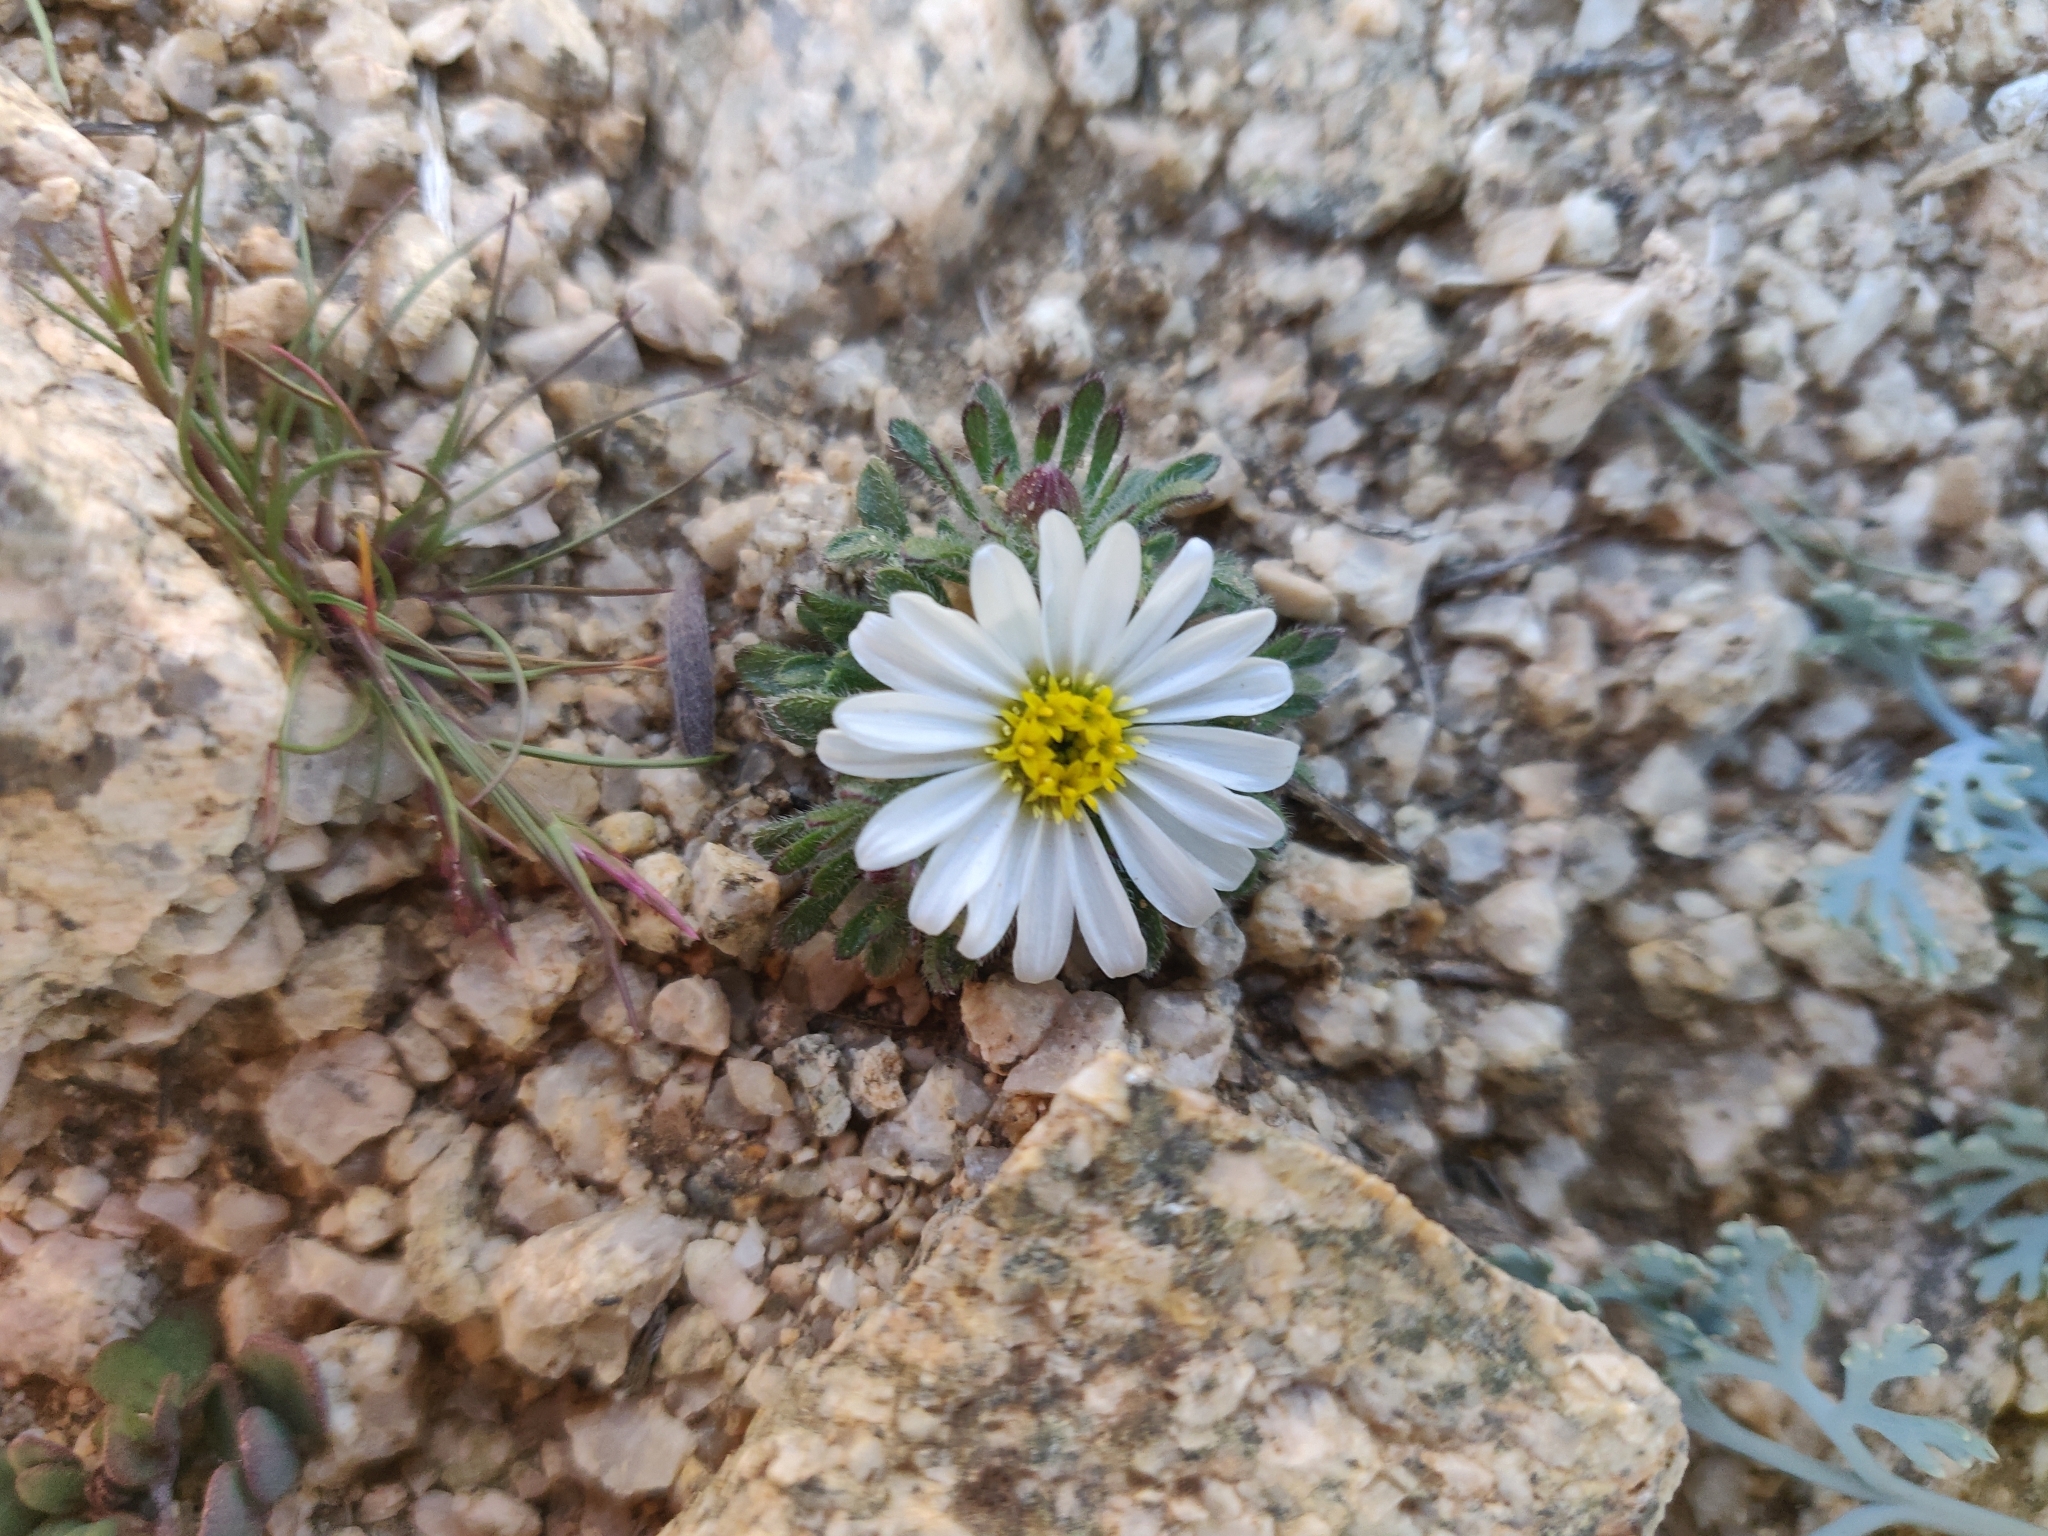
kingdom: Plantae
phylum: Tracheophyta
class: Magnoliopsida
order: Asterales
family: Asteraceae
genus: Monoptilon
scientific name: Monoptilon bellioides
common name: Bristly desertstar
